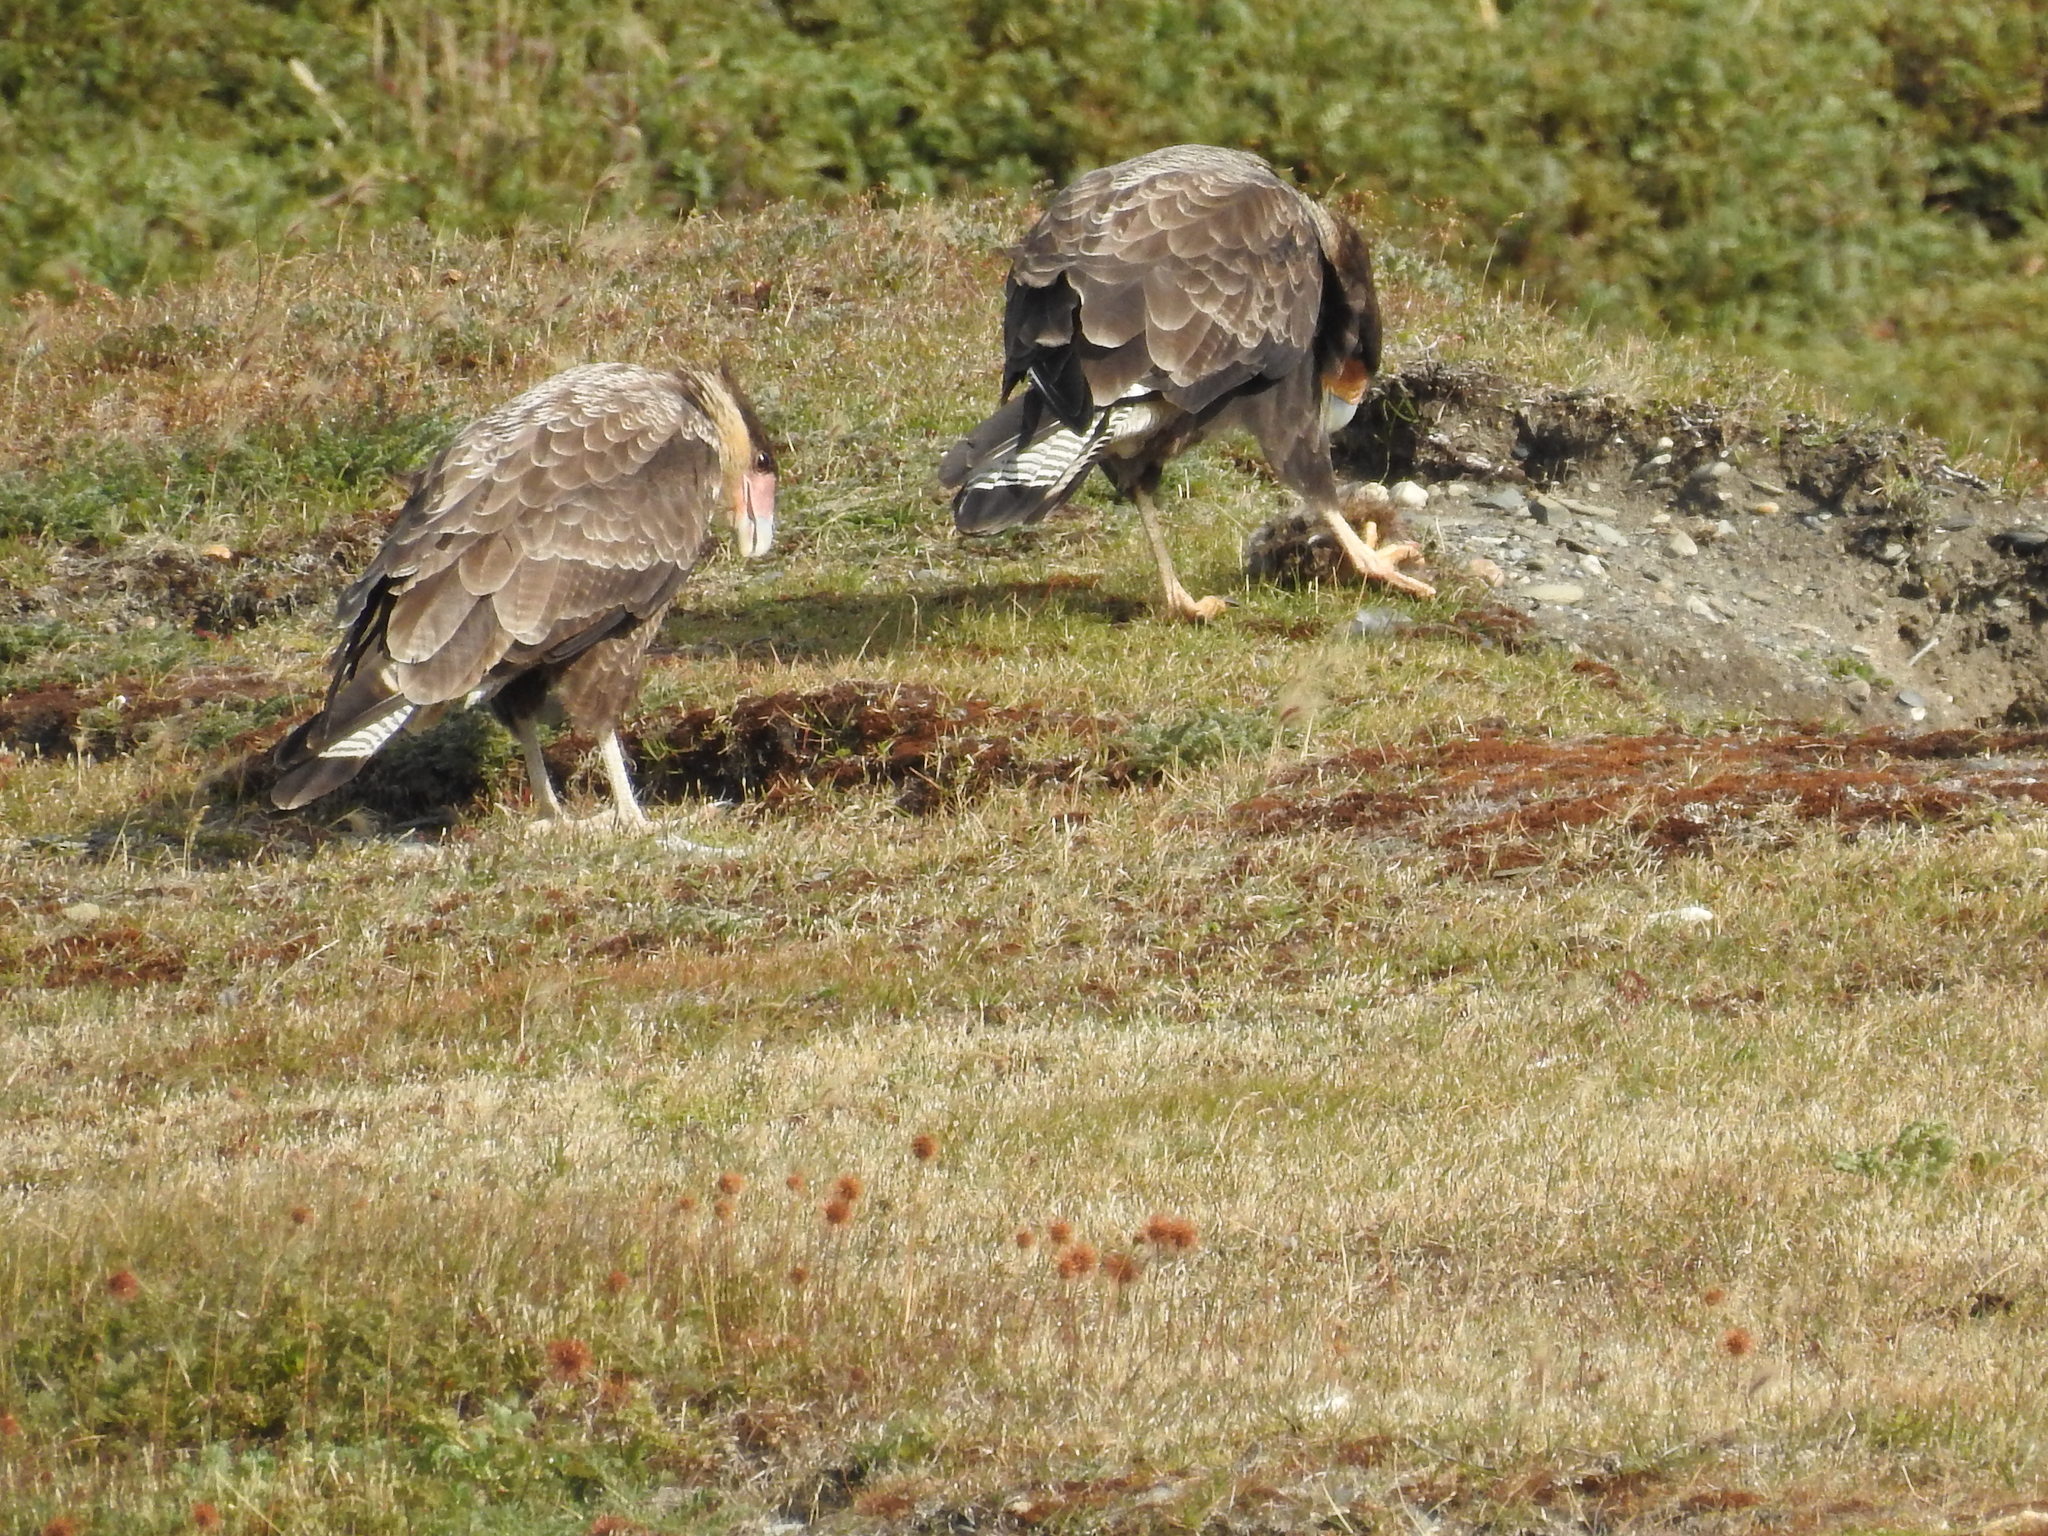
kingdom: Animalia
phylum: Chordata
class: Aves
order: Falconiformes
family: Falconidae
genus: Caracara
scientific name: Caracara plancus
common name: Southern caracara
